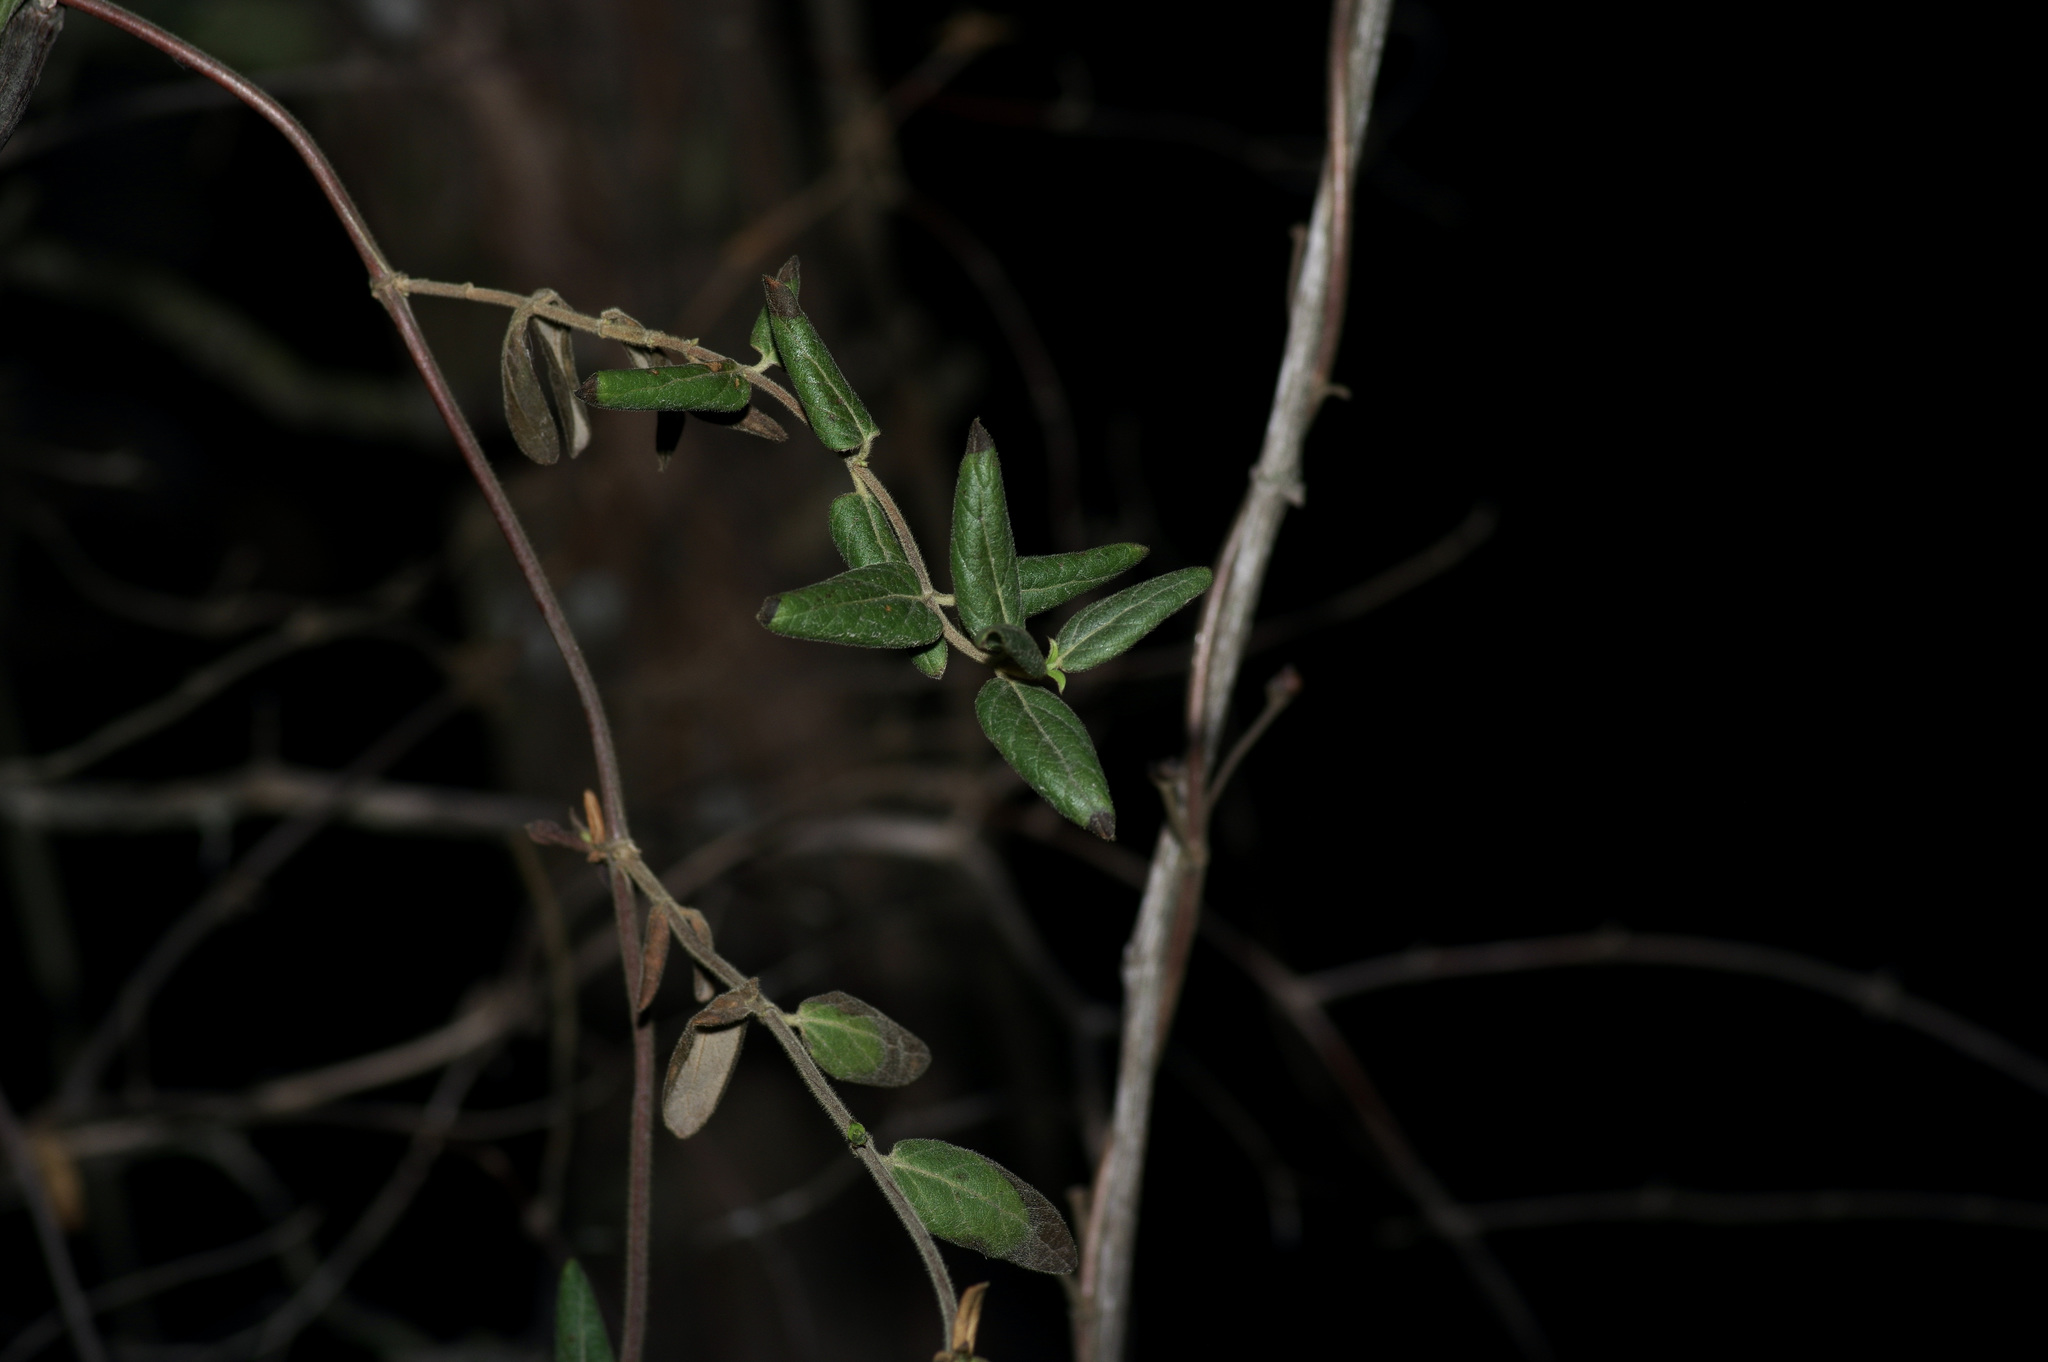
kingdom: Plantae
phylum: Tracheophyta
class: Magnoliopsida
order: Dipsacales
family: Caprifoliaceae
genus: Lonicera
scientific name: Lonicera japonica
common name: Japanese honeysuckle
